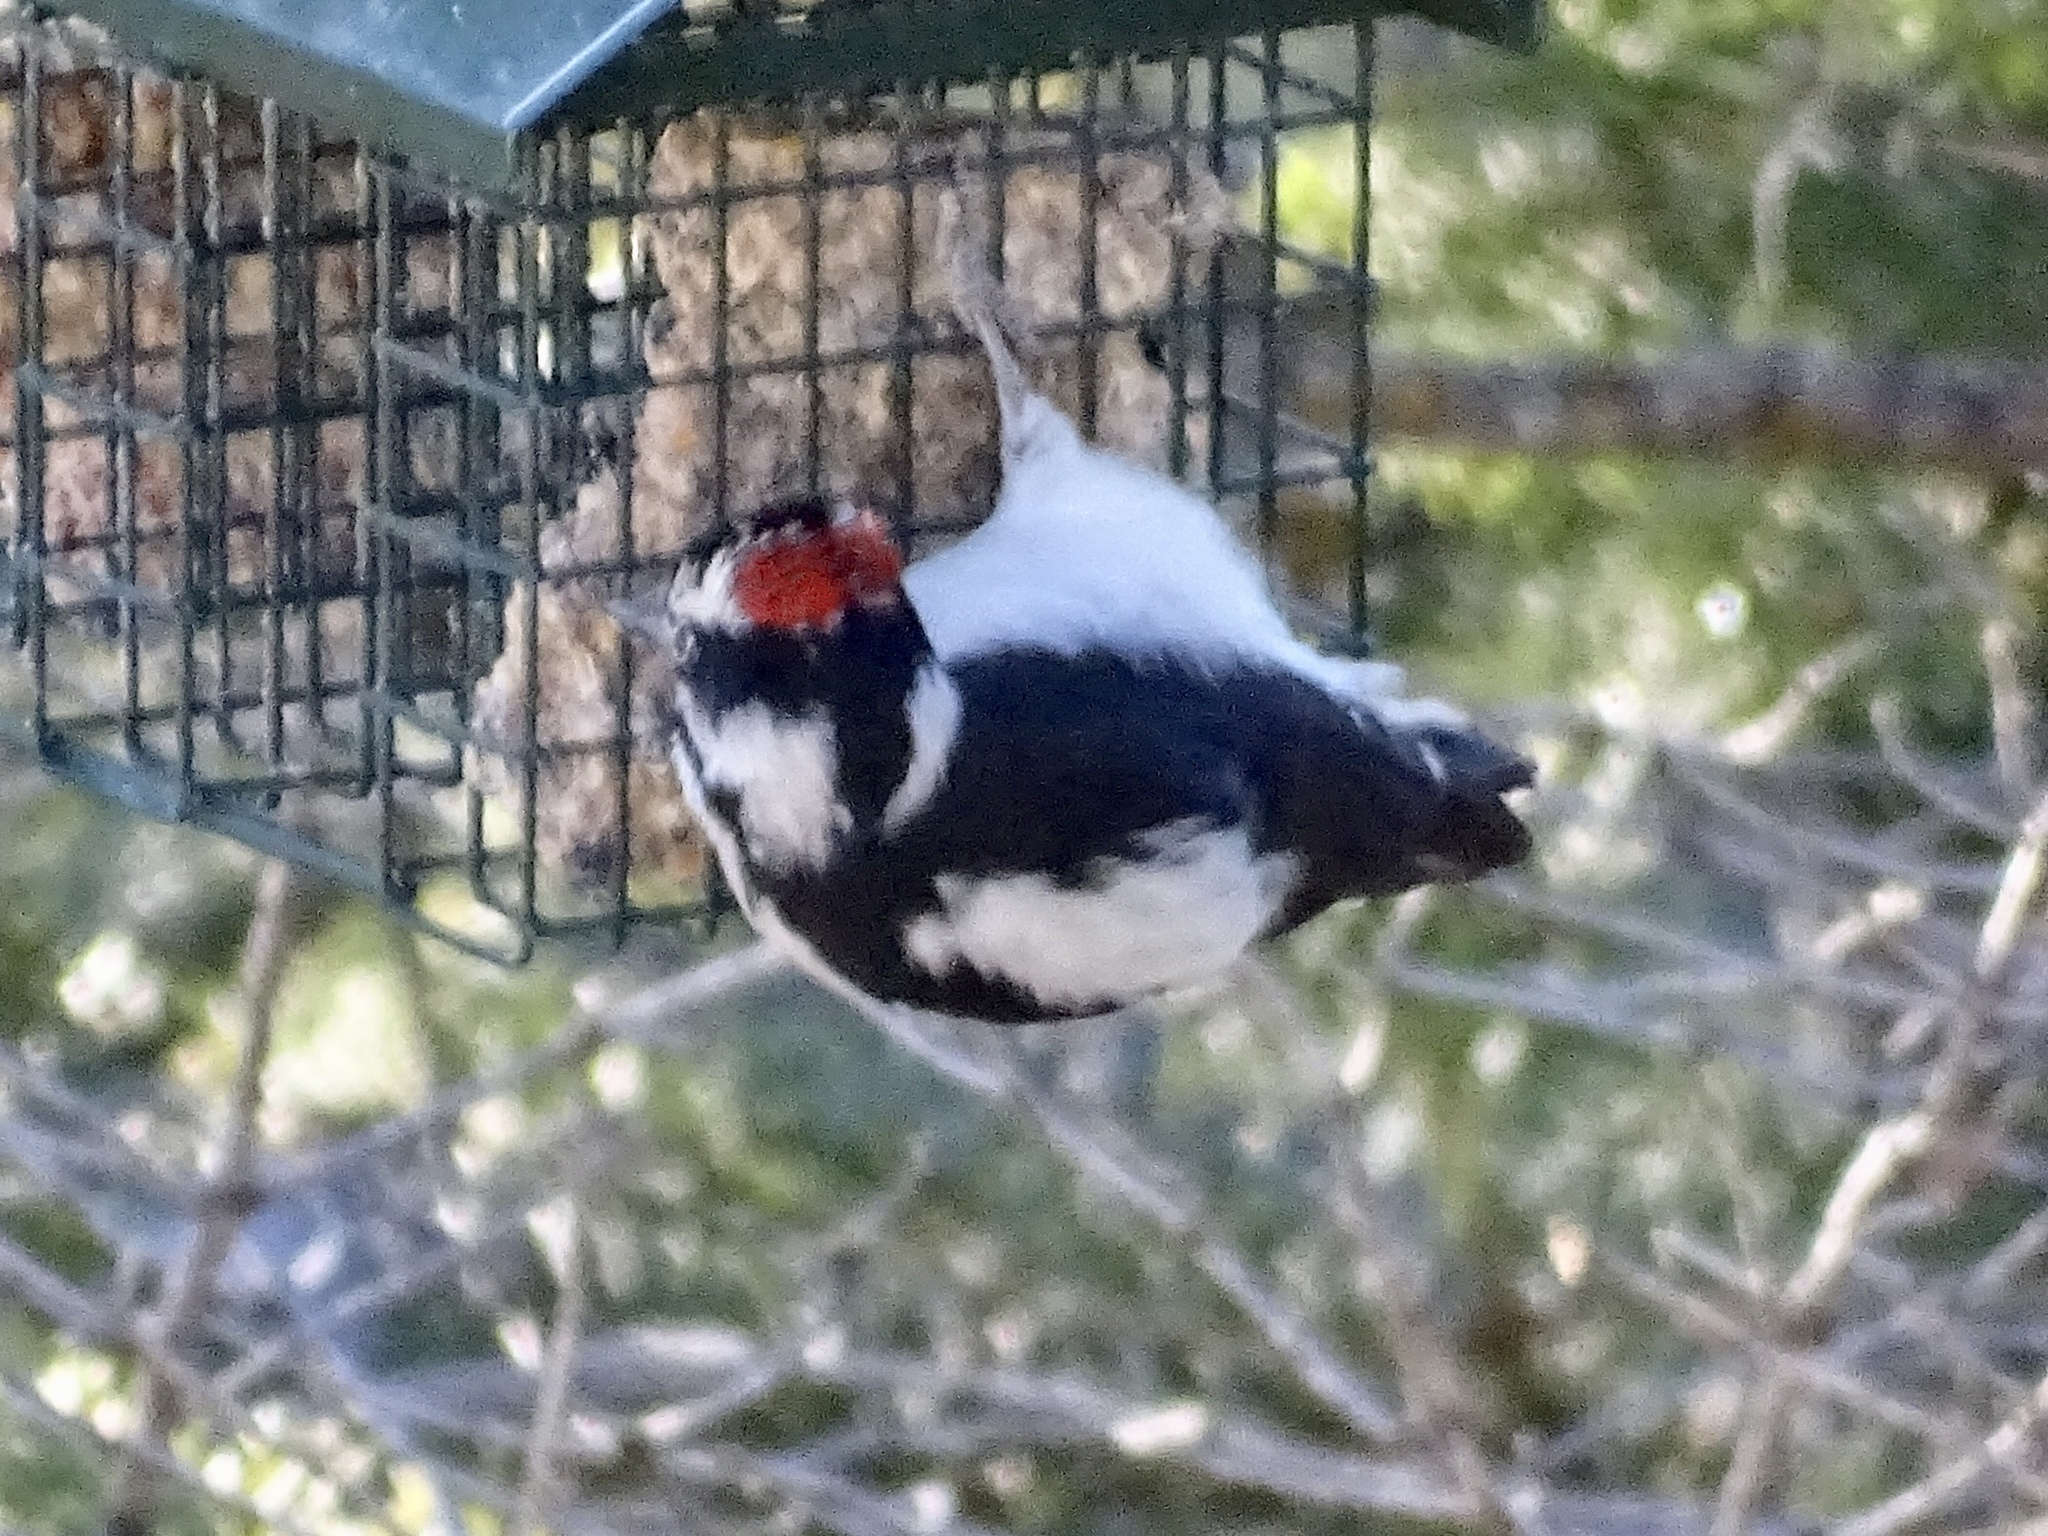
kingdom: Animalia
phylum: Chordata
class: Aves
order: Piciformes
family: Picidae
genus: Leuconotopicus
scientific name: Leuconotopicus villosus
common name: Hairy woodpecker
